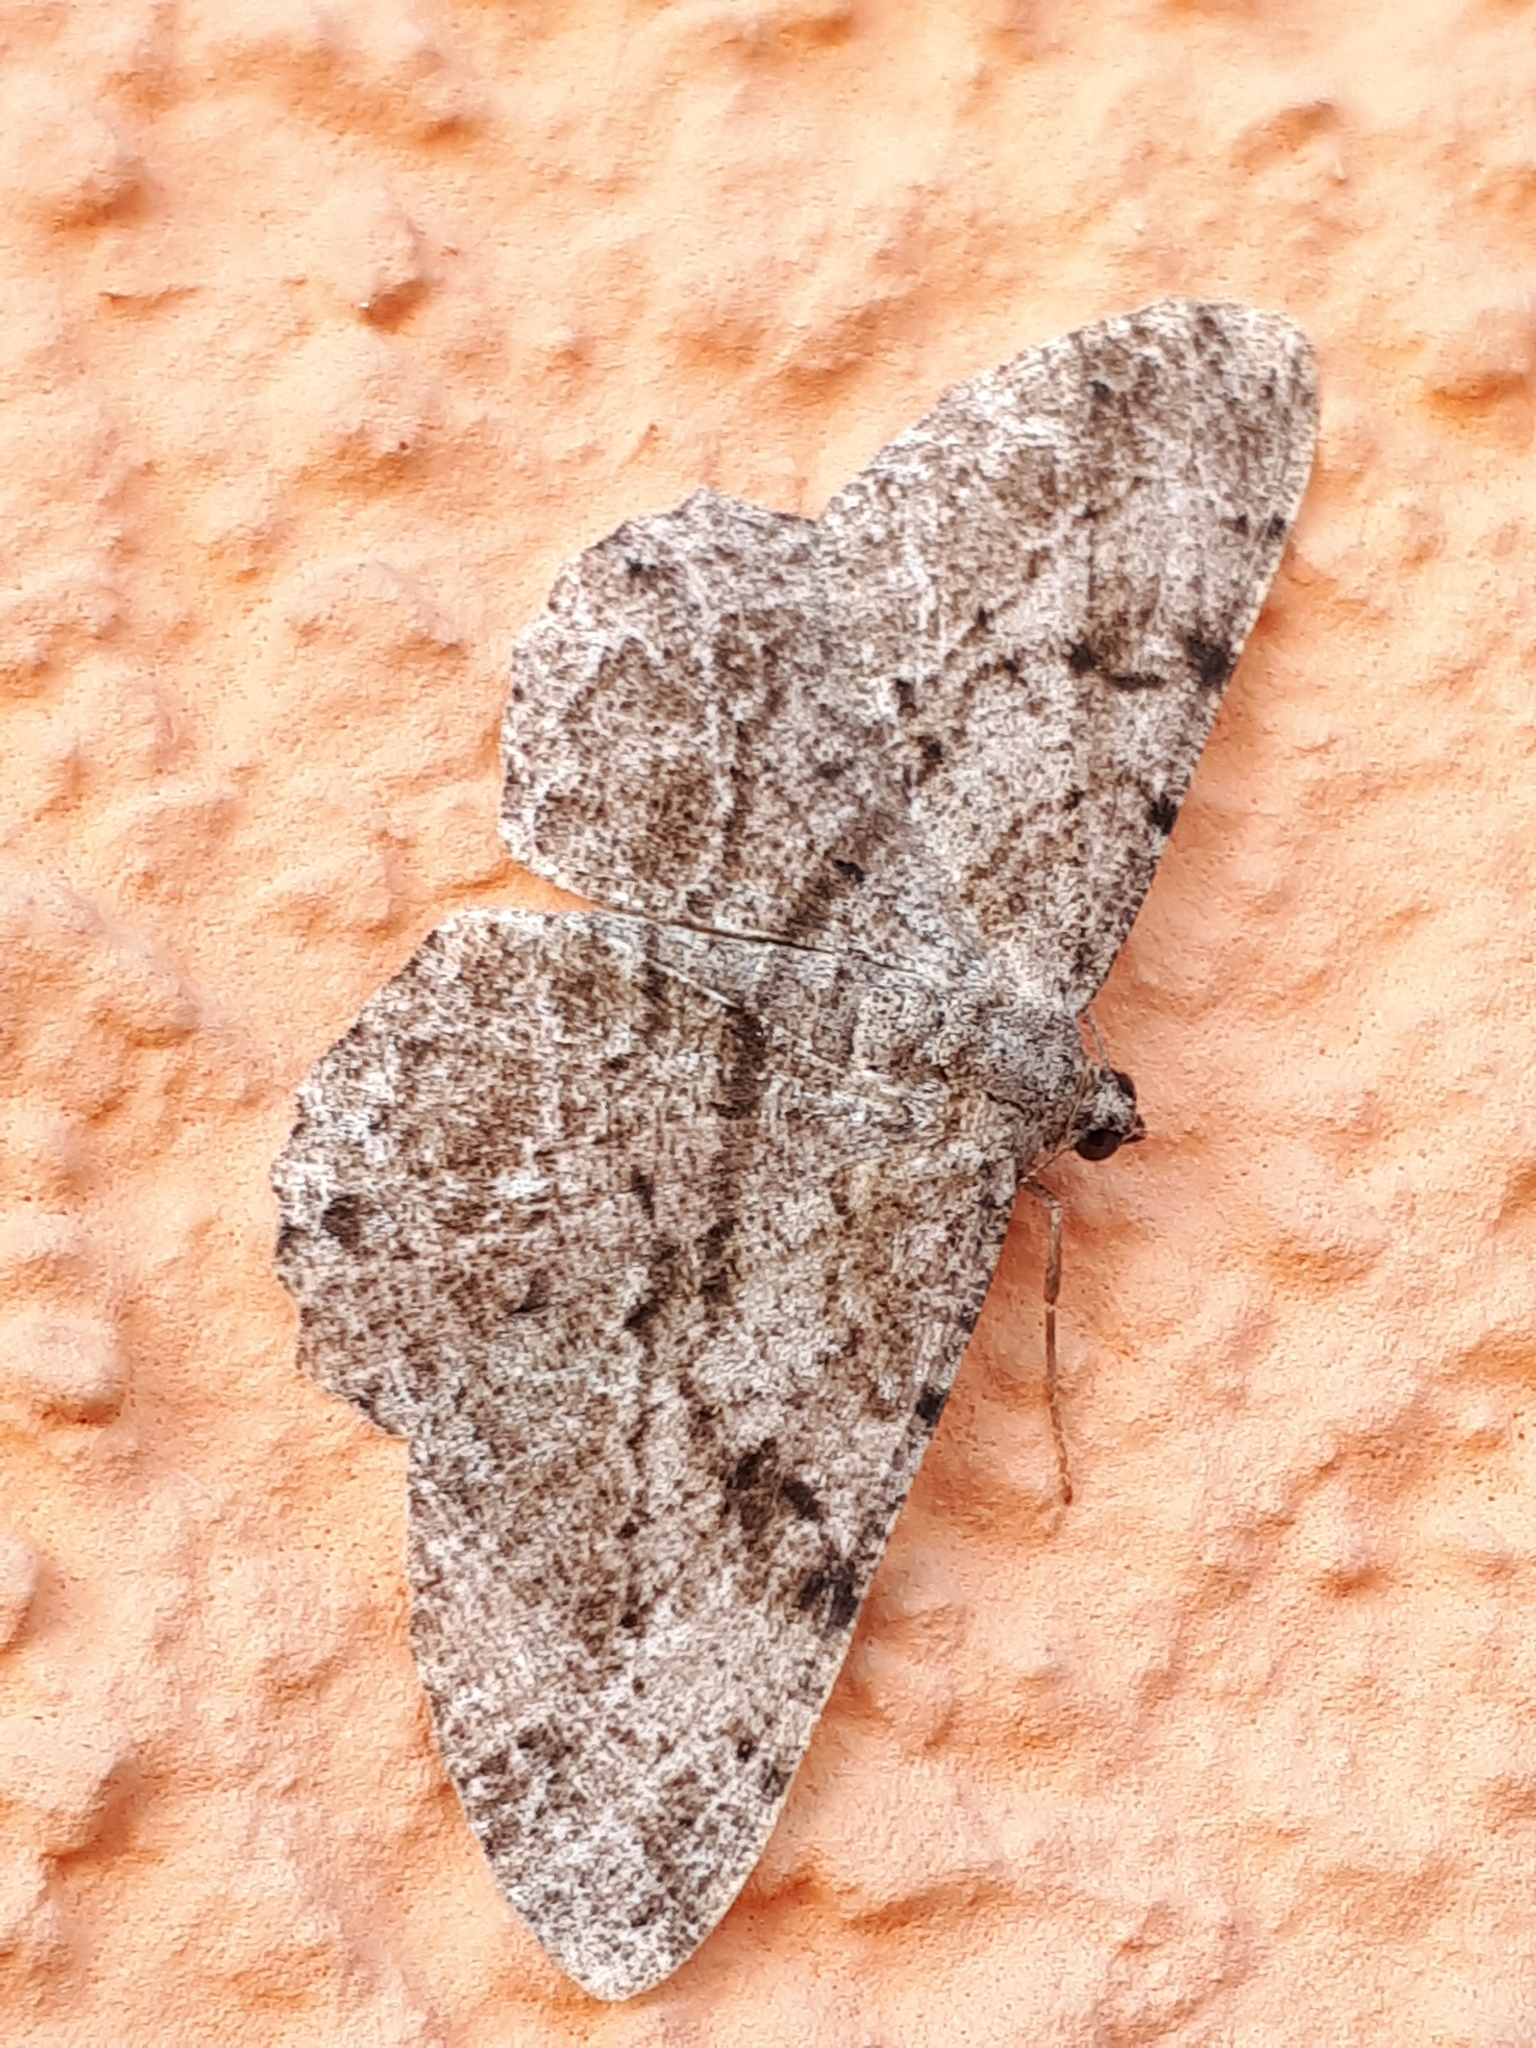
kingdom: Animalia
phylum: Arthropoda
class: Insecta
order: Lepidoptera
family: Geometridae
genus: Peribatodes
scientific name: Peribatodes rhomboidaria
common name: Willow beauty
